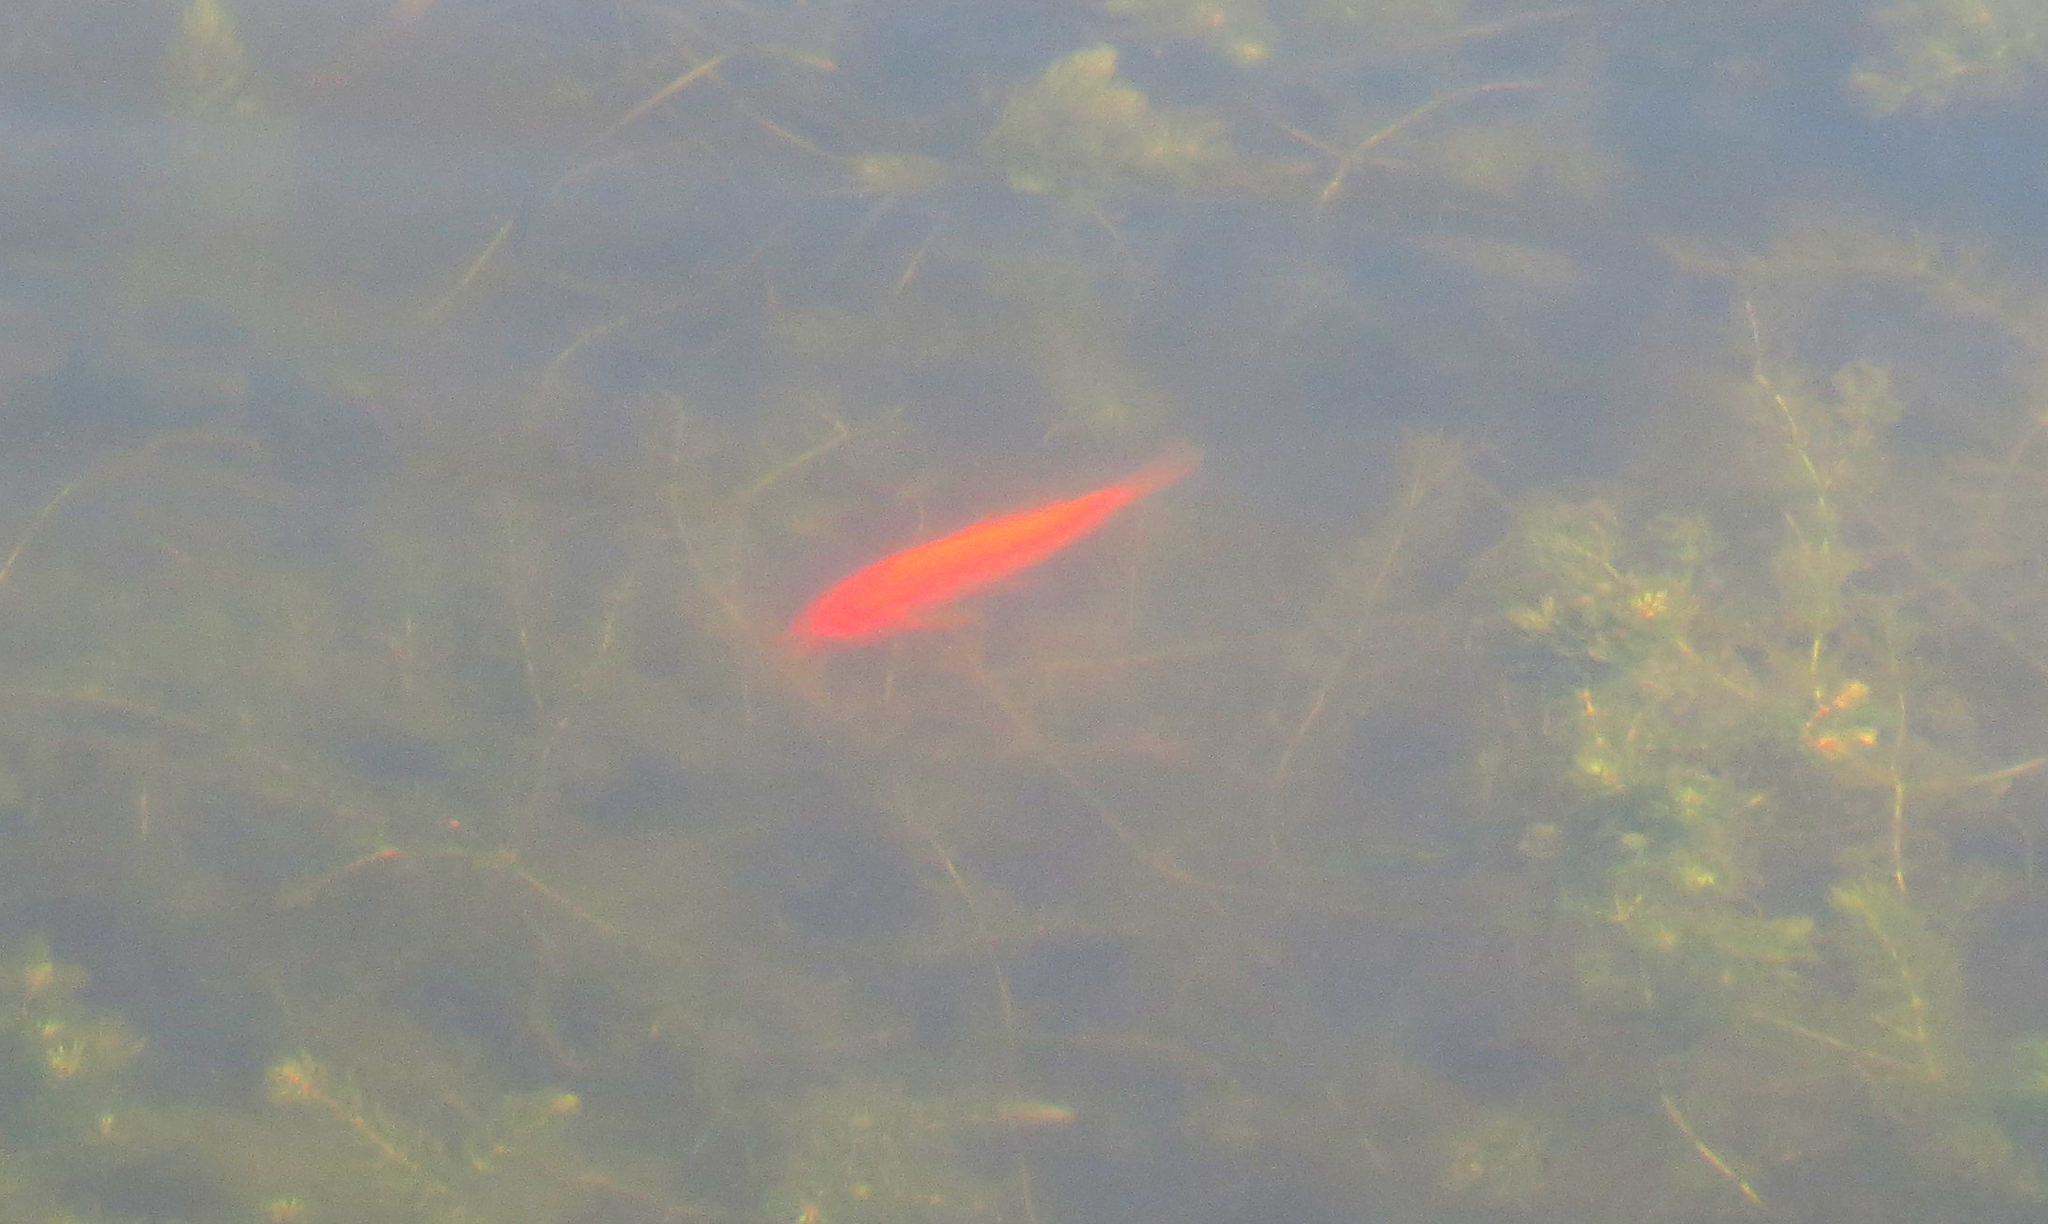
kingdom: Animalia
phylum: Chordata
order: Cypriniformes
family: Cyprinidae
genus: Carassius
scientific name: Carassius auratus
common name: Goldfish
